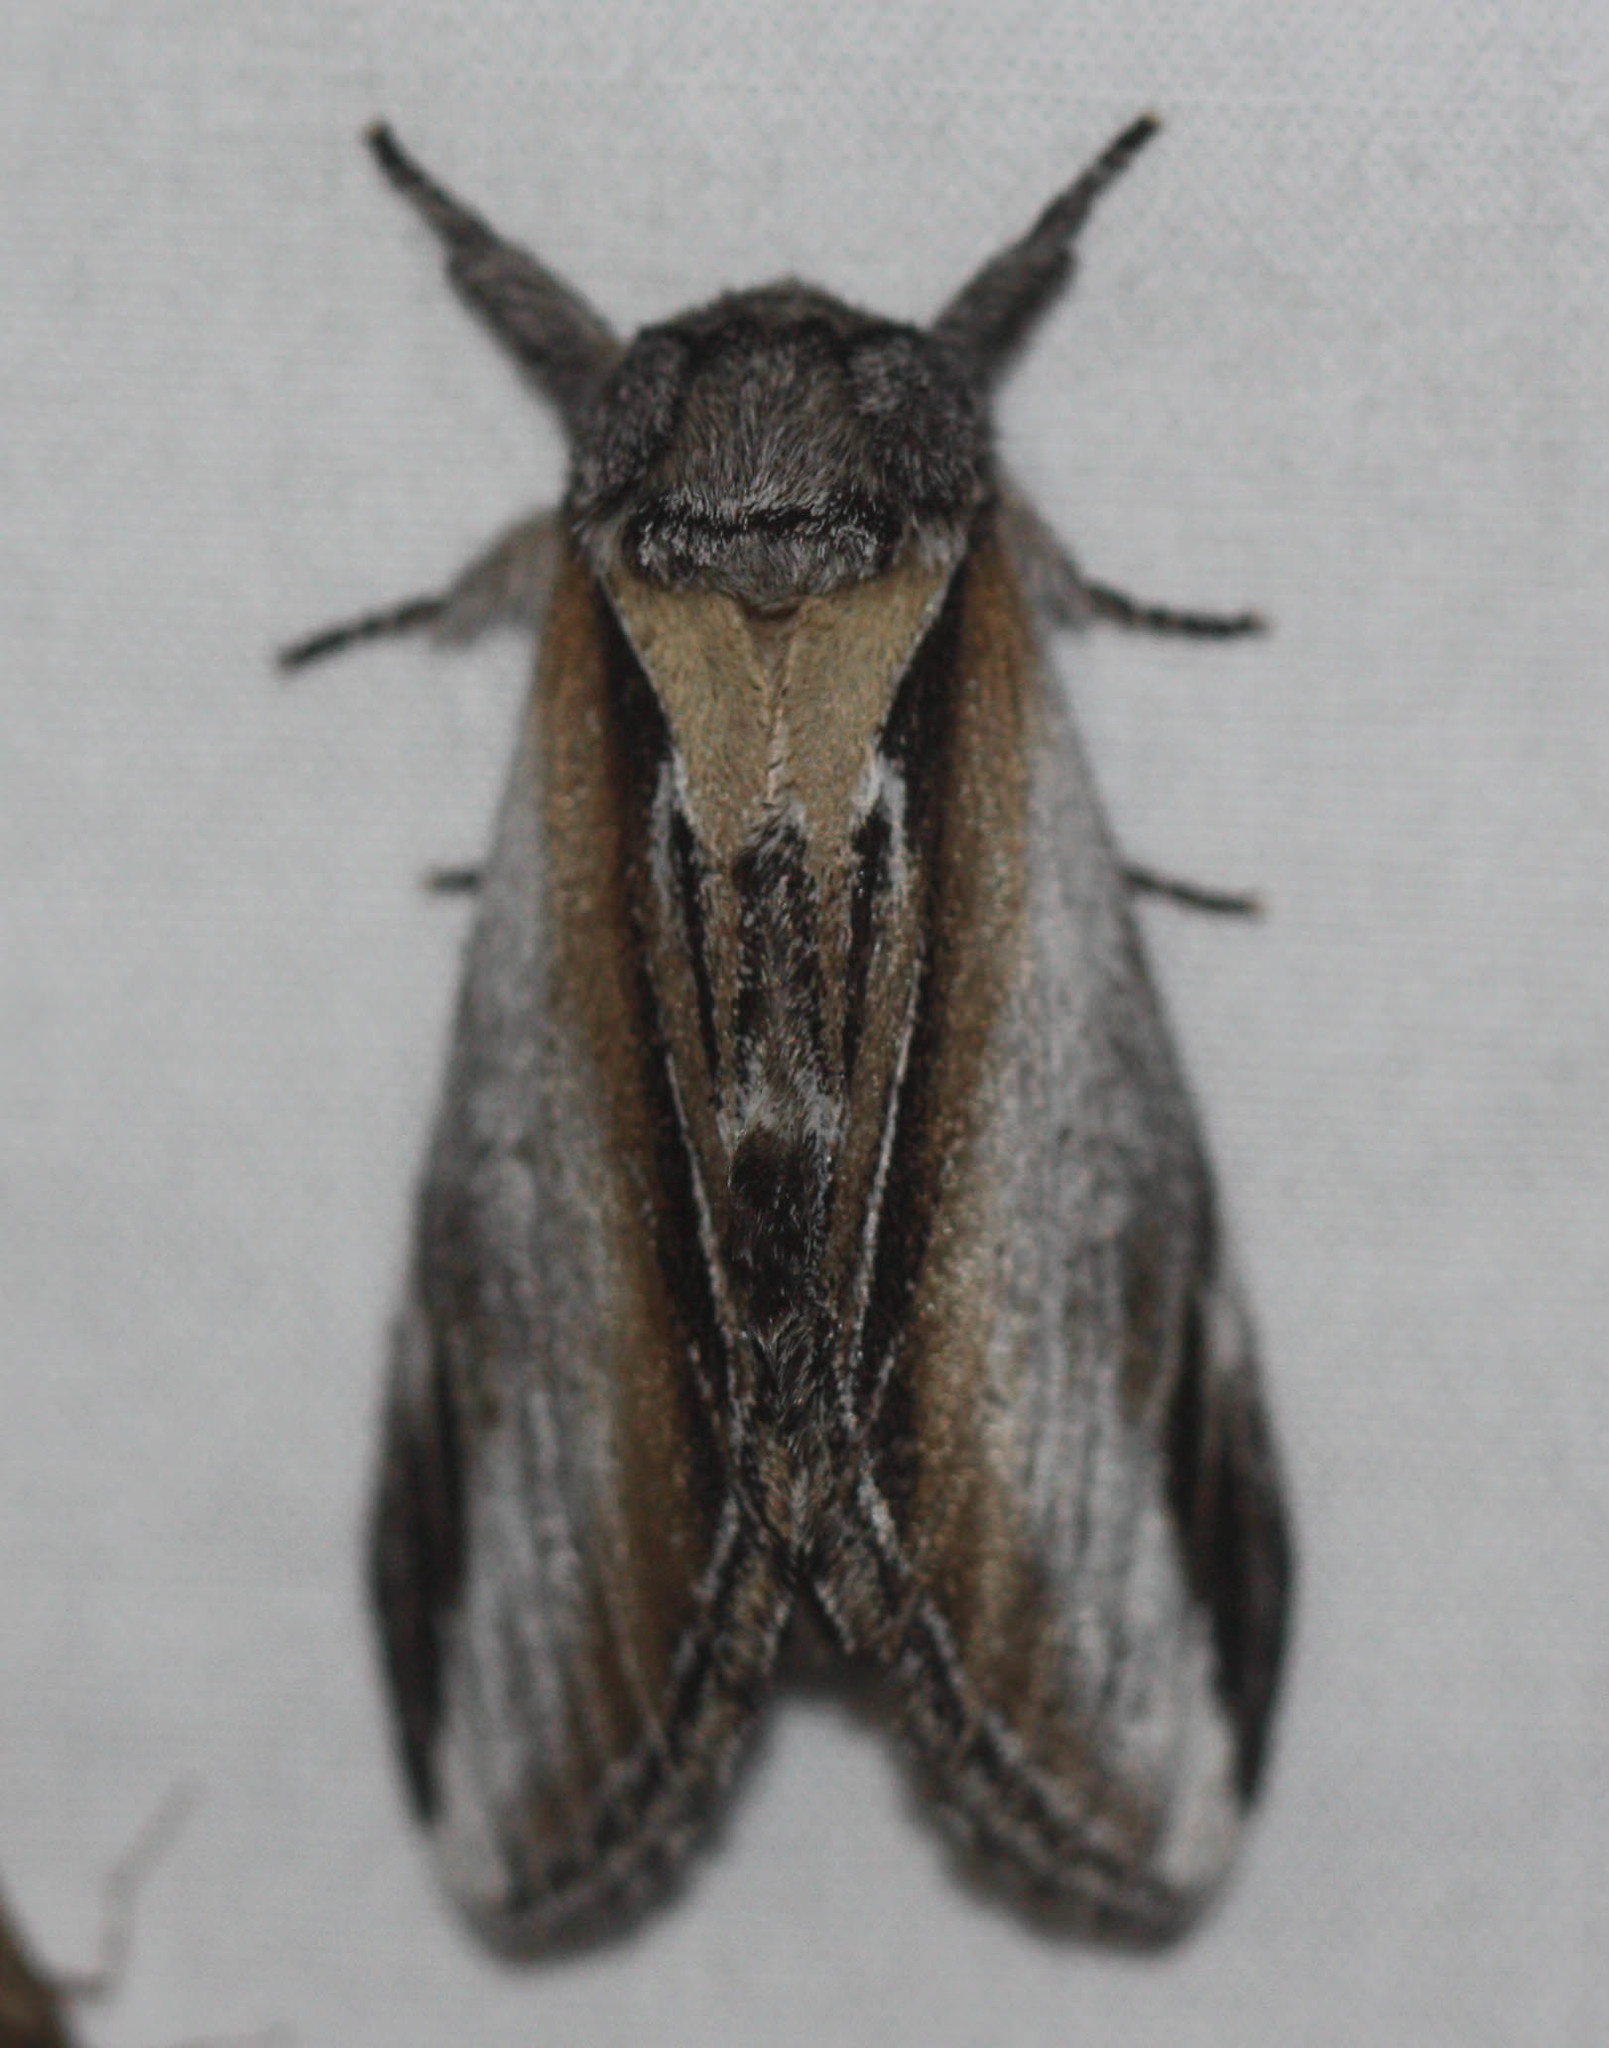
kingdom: Animalia
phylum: Arthropoda
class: Insecta
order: Lepidoptera
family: Notodontidae
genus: Pheosia
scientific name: Pheosia rimosa
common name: Black-rimmed prominent
